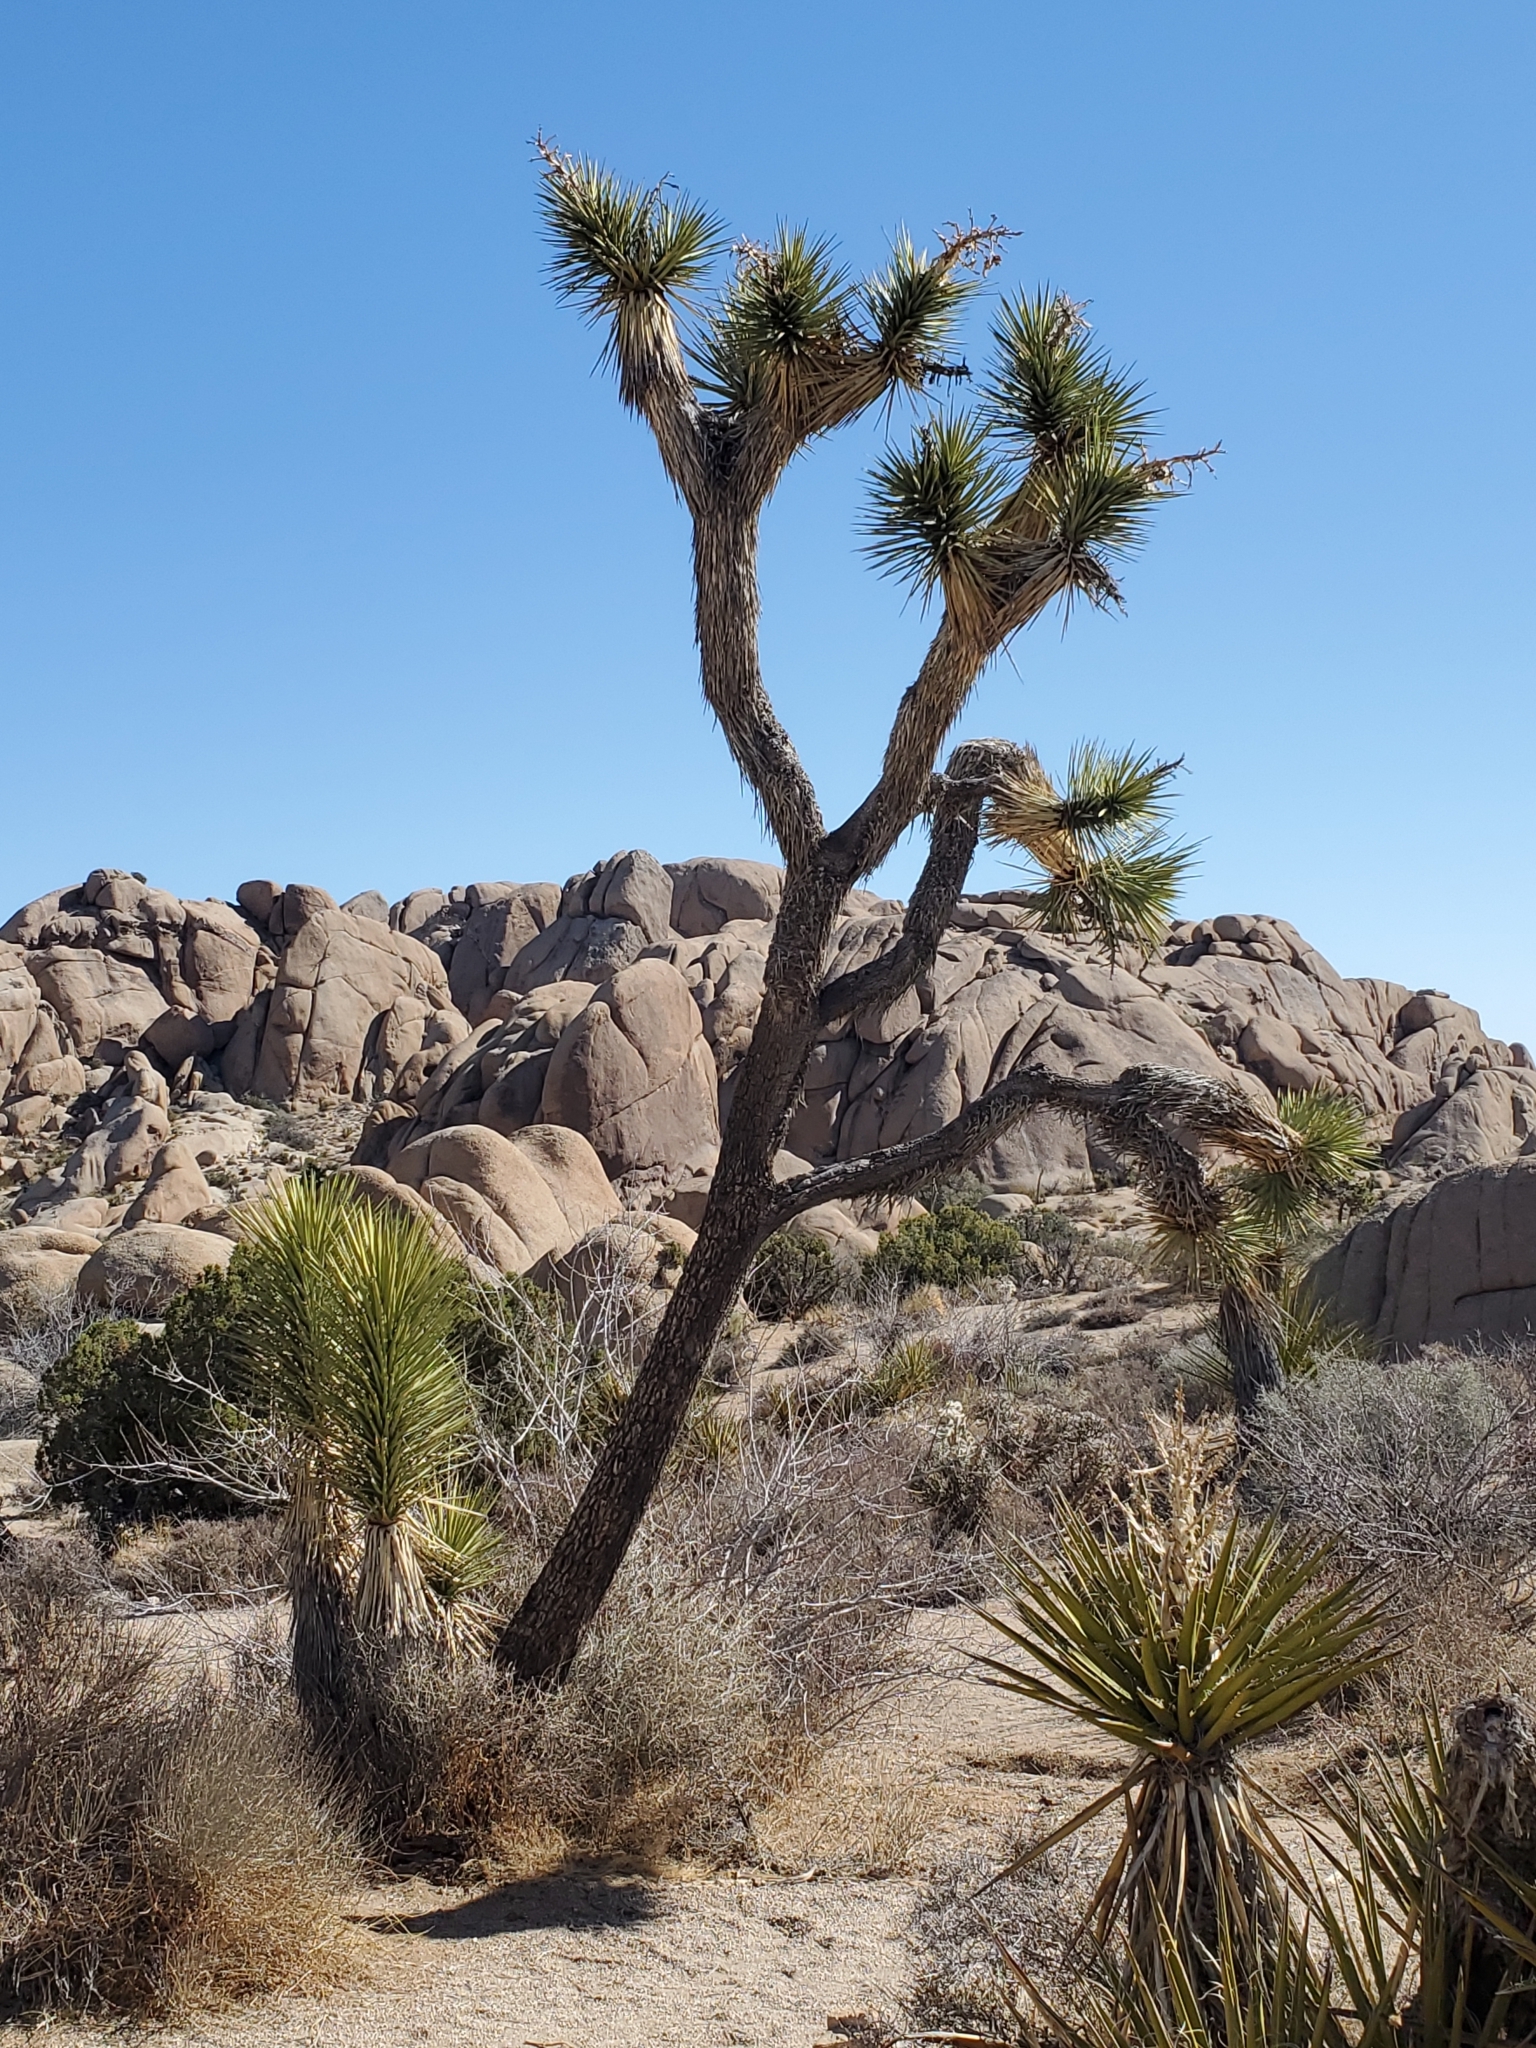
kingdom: Plantae
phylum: Tracheophyta
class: Liliopsida
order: Asparagales
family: Asparagaceae
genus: Yucca
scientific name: Yucca brevifolia
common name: Joshua tree
